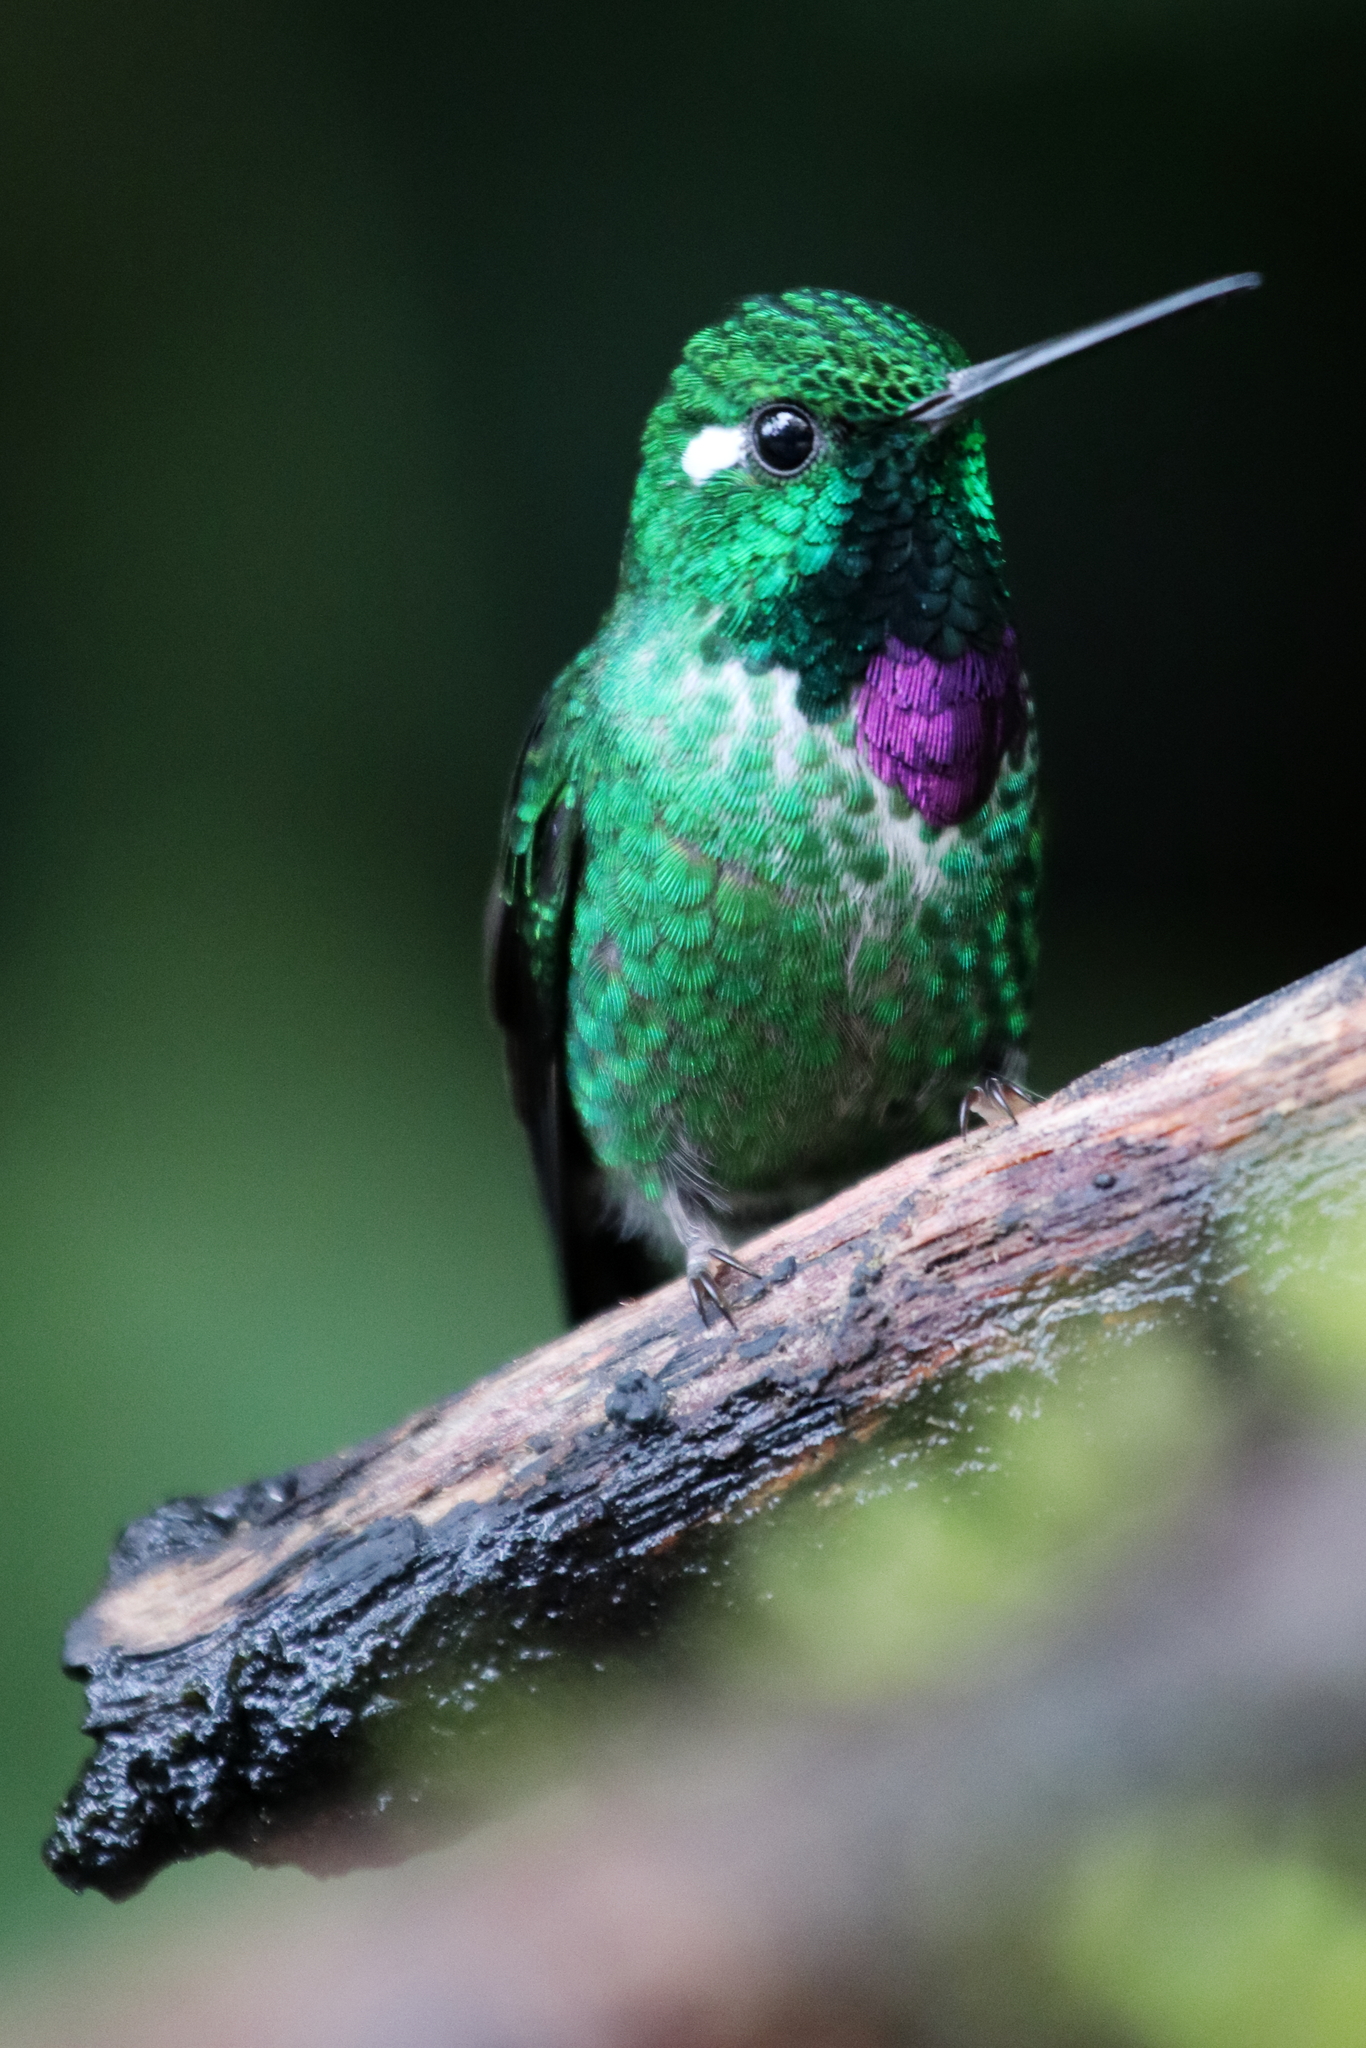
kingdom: Animalia
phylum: Chordata
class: Aves
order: Apodiformes
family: Trochilidae
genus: Urosticte
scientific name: Urosticte benjamini
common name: Purple-bibbed whitetip
